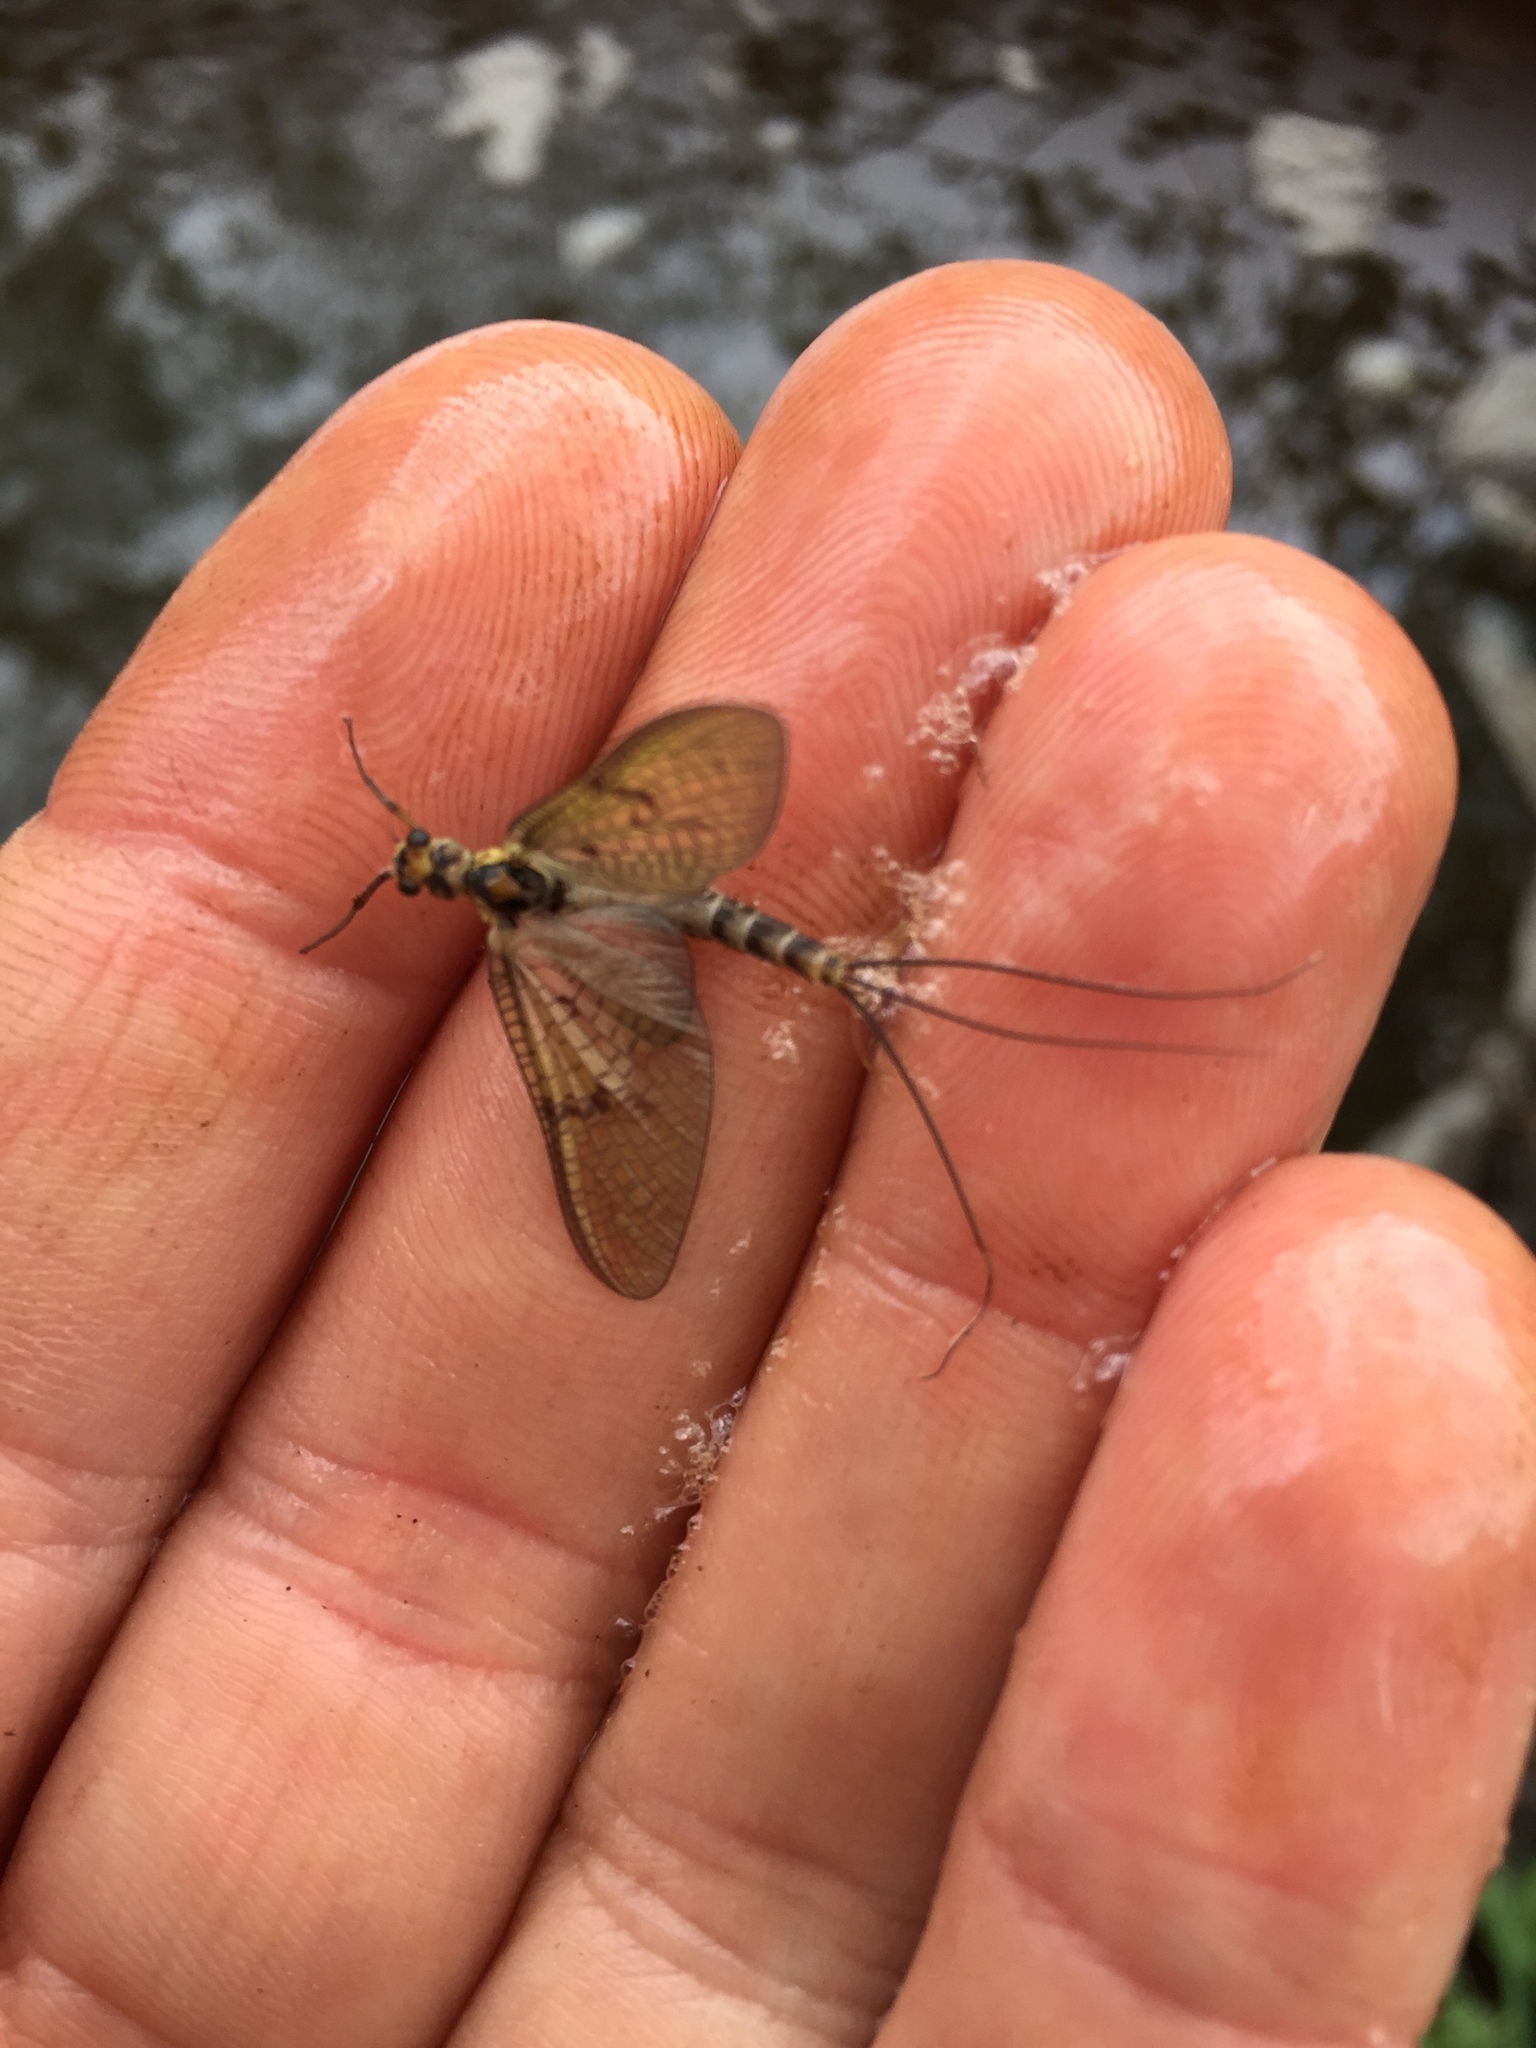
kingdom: Animalia
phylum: Arthropoda
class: Insecta
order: Ephemeroptera
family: Ephemeridae
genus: Ephemera
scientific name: Ephemera danica
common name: Green dun
